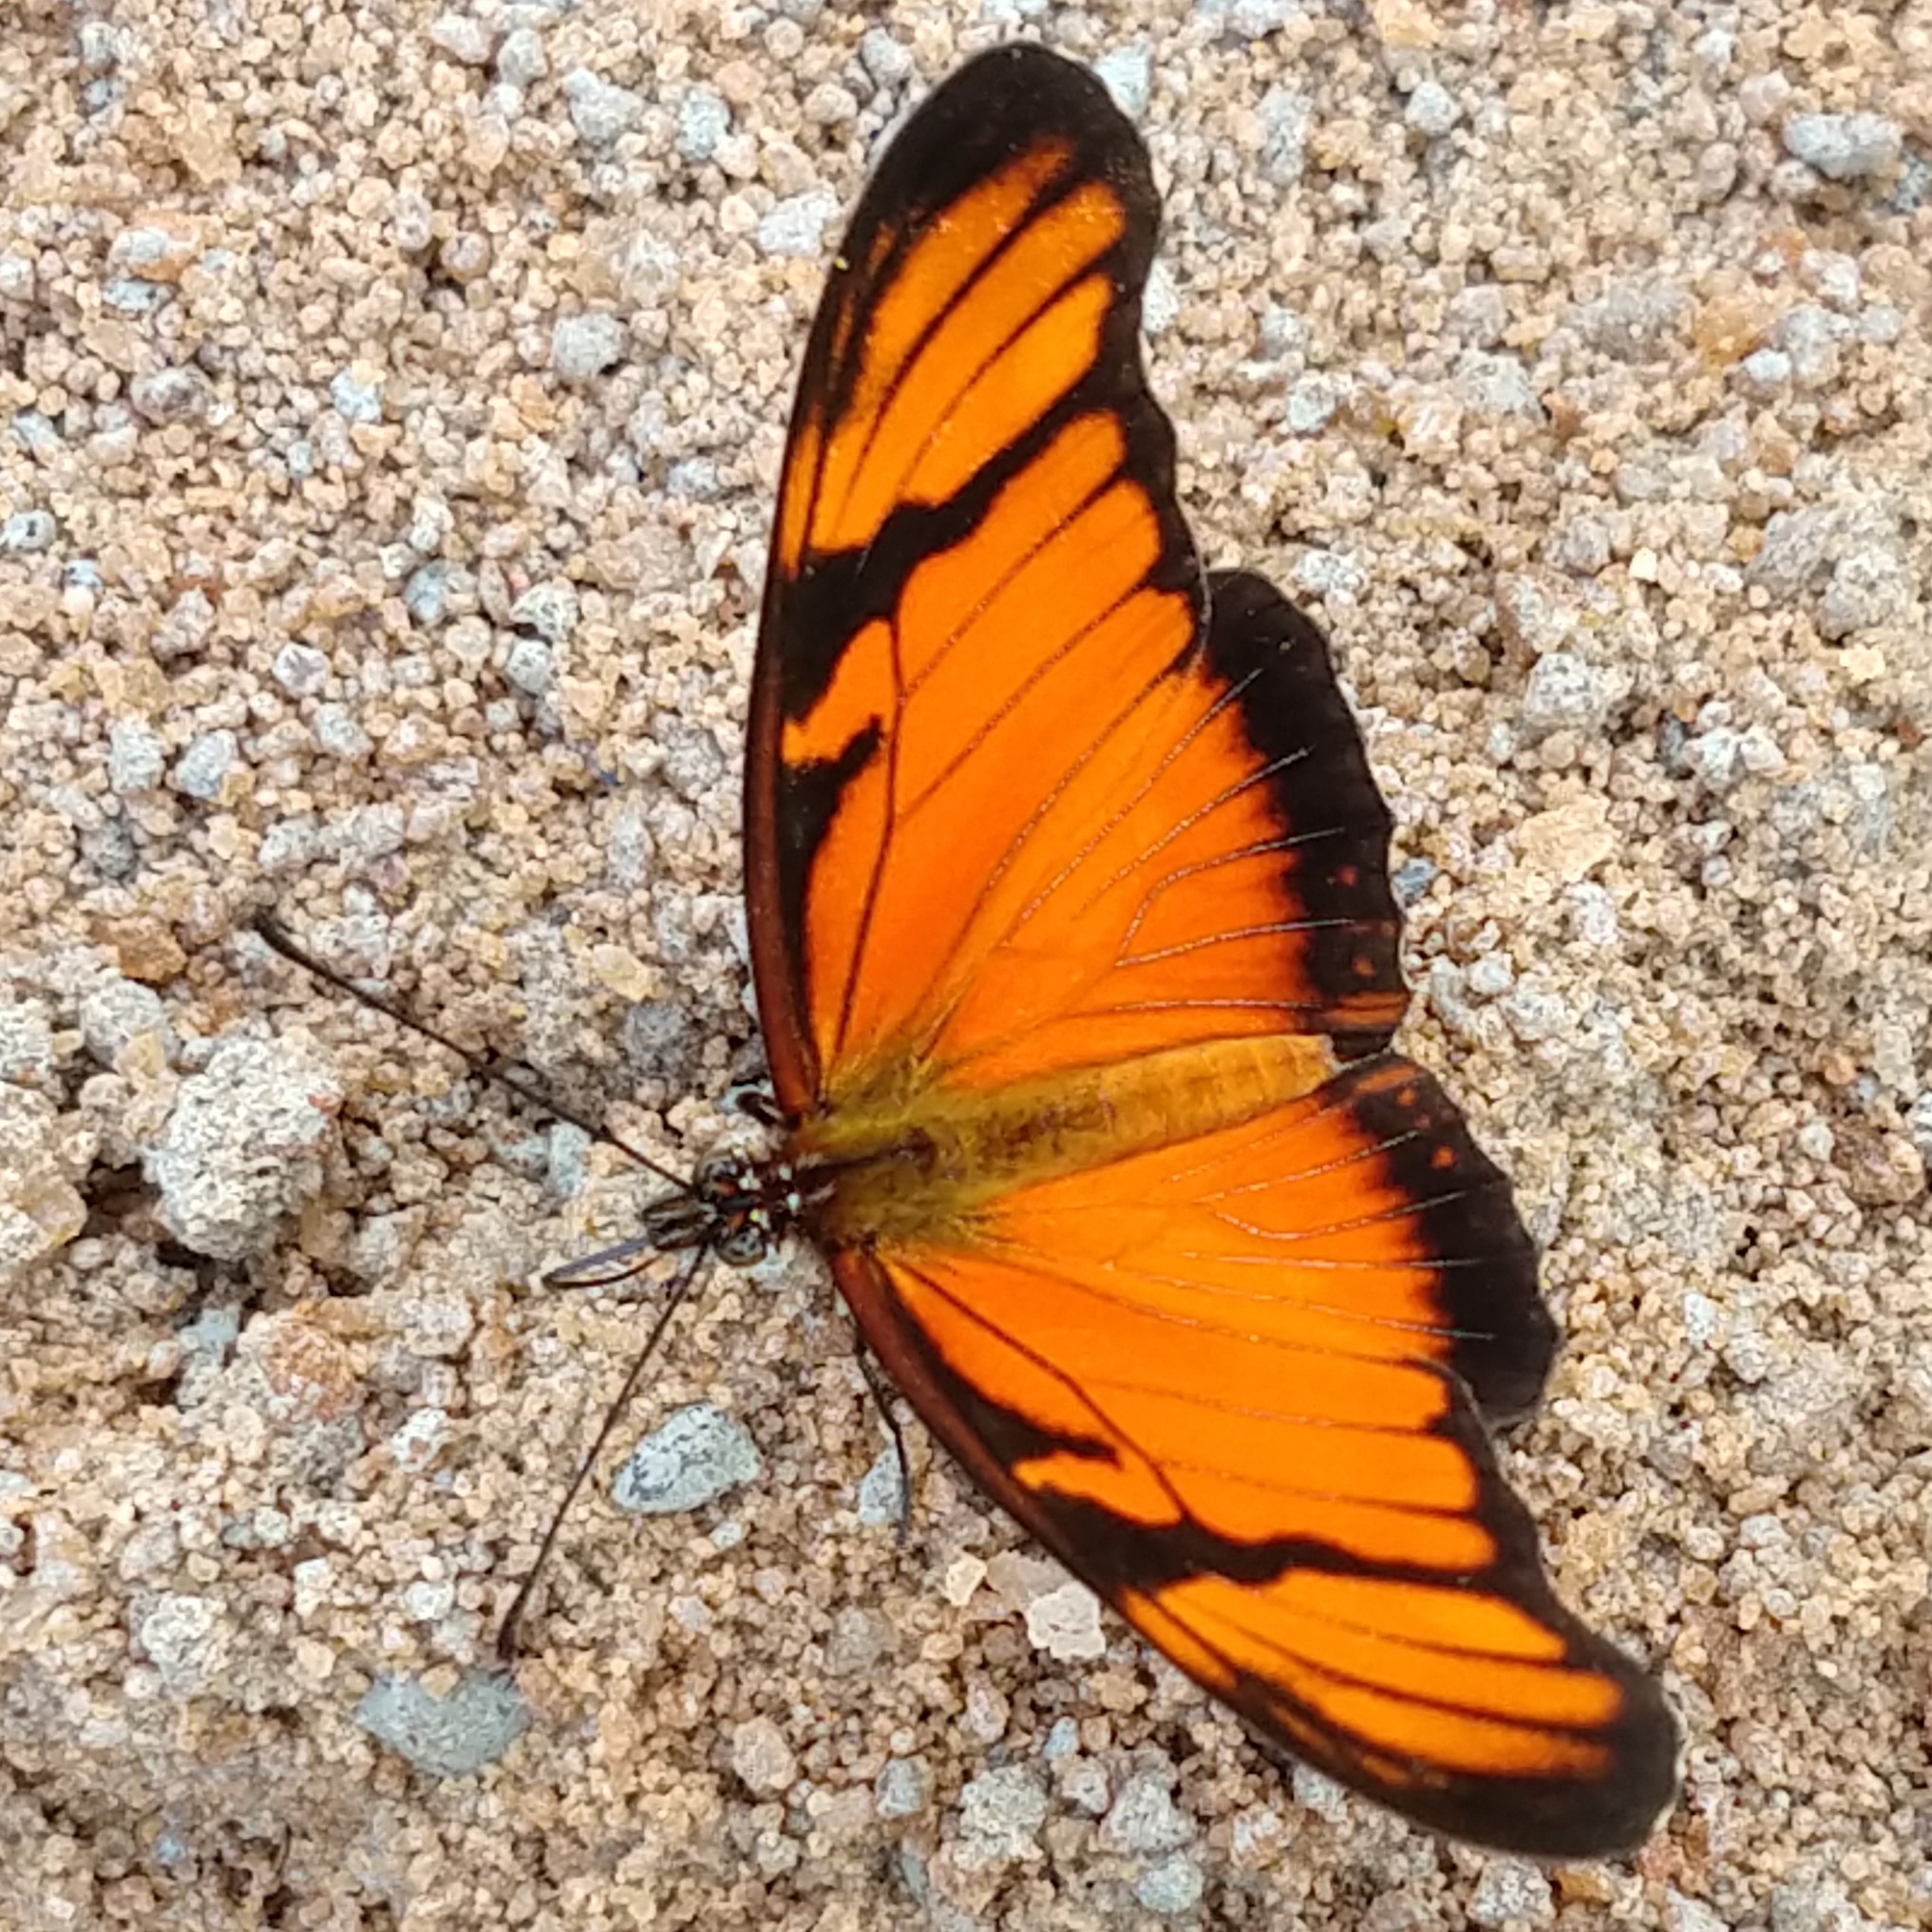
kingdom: Animalia
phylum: Arthropoda
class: Insecta
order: Lepidoptera
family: Nymphalidae
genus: Dione
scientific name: Dione juno
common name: Juno silverspot
